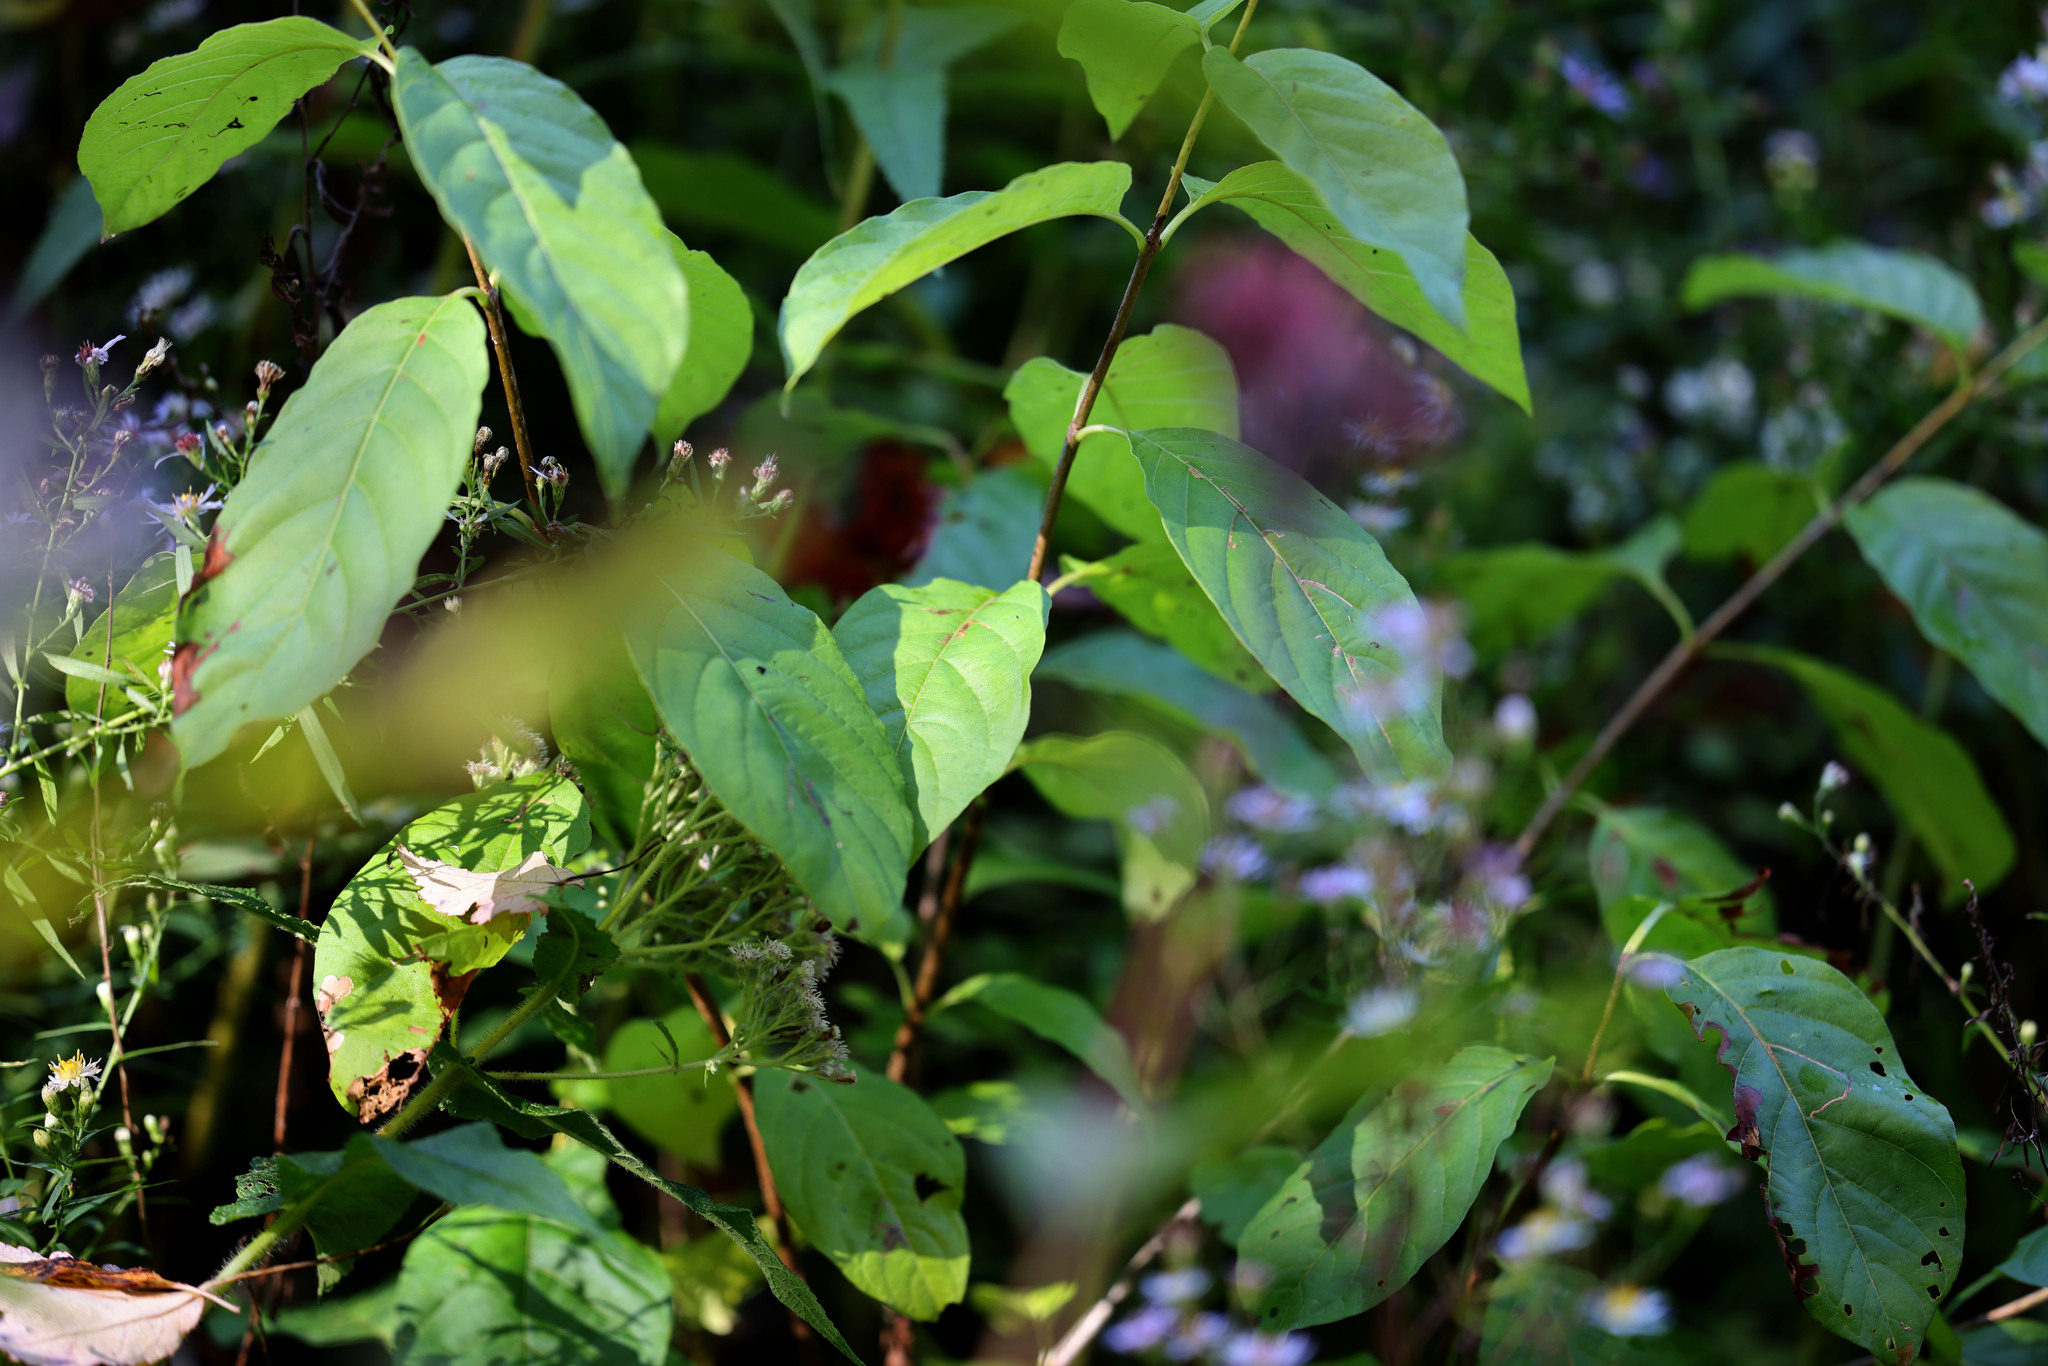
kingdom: Plantae
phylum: Tracheophyta
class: Magnoliopsida
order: Gentianales
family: Rubiaceae
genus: Cephalanthus
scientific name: Cephalanthus occidentalis
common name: Button-willow
